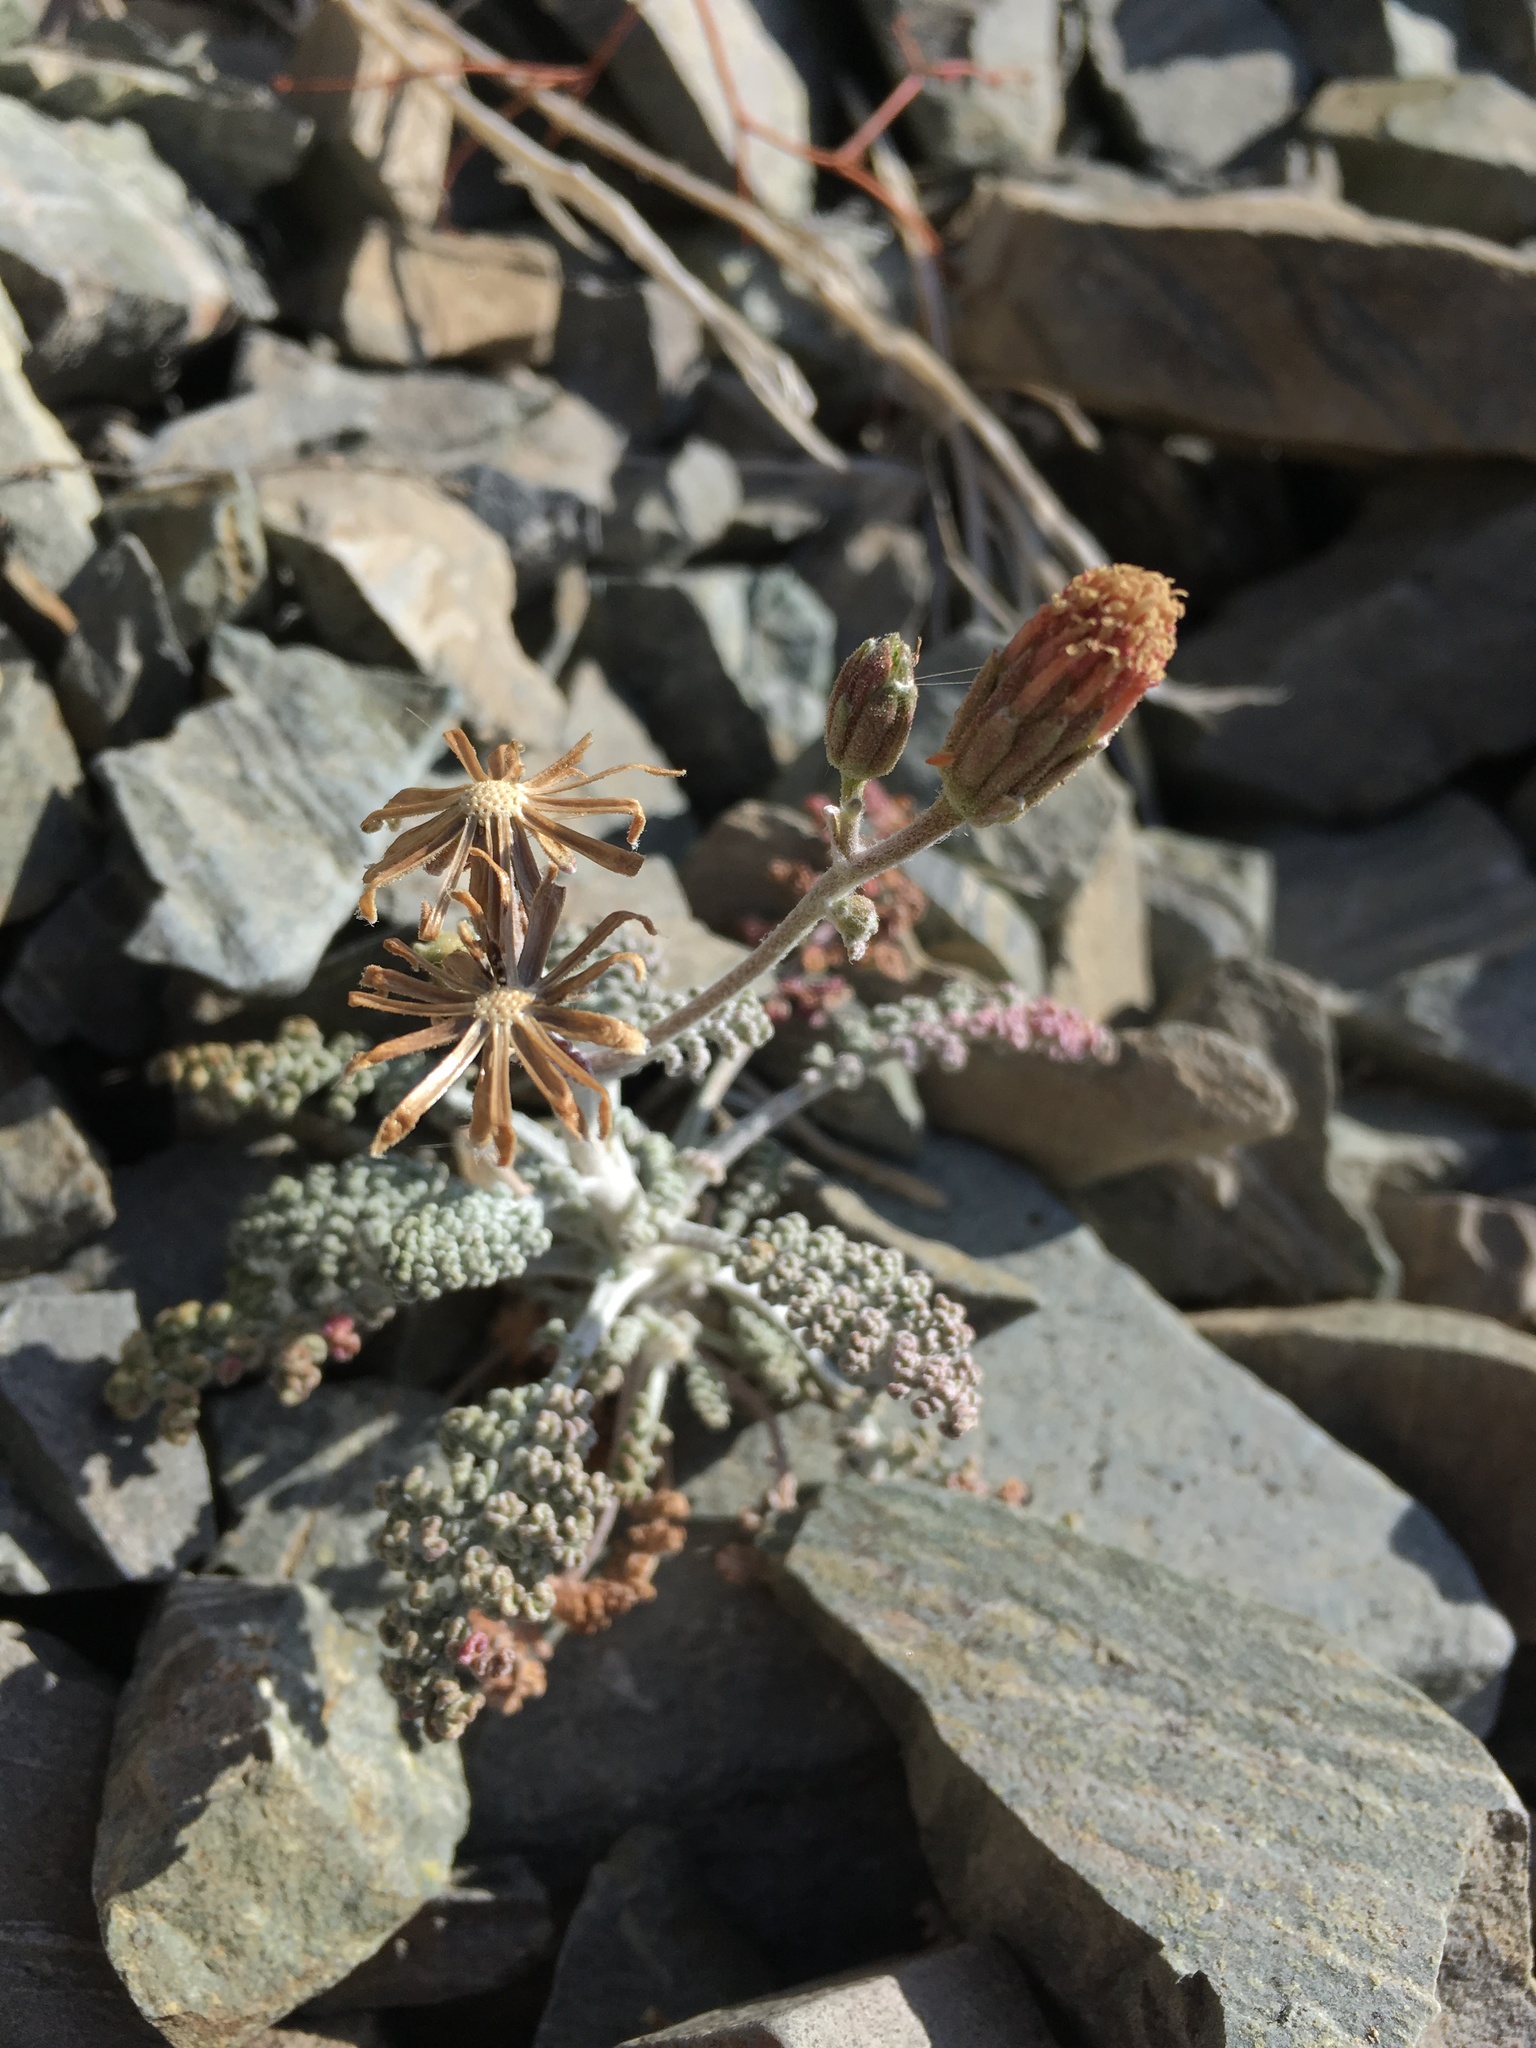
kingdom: Plantae
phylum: Tracheophyta
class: Magnoliopsida
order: Asterales
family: Asteraceae
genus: Chaenactis
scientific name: Chaenactis douglasii
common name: Hoary pincushion
